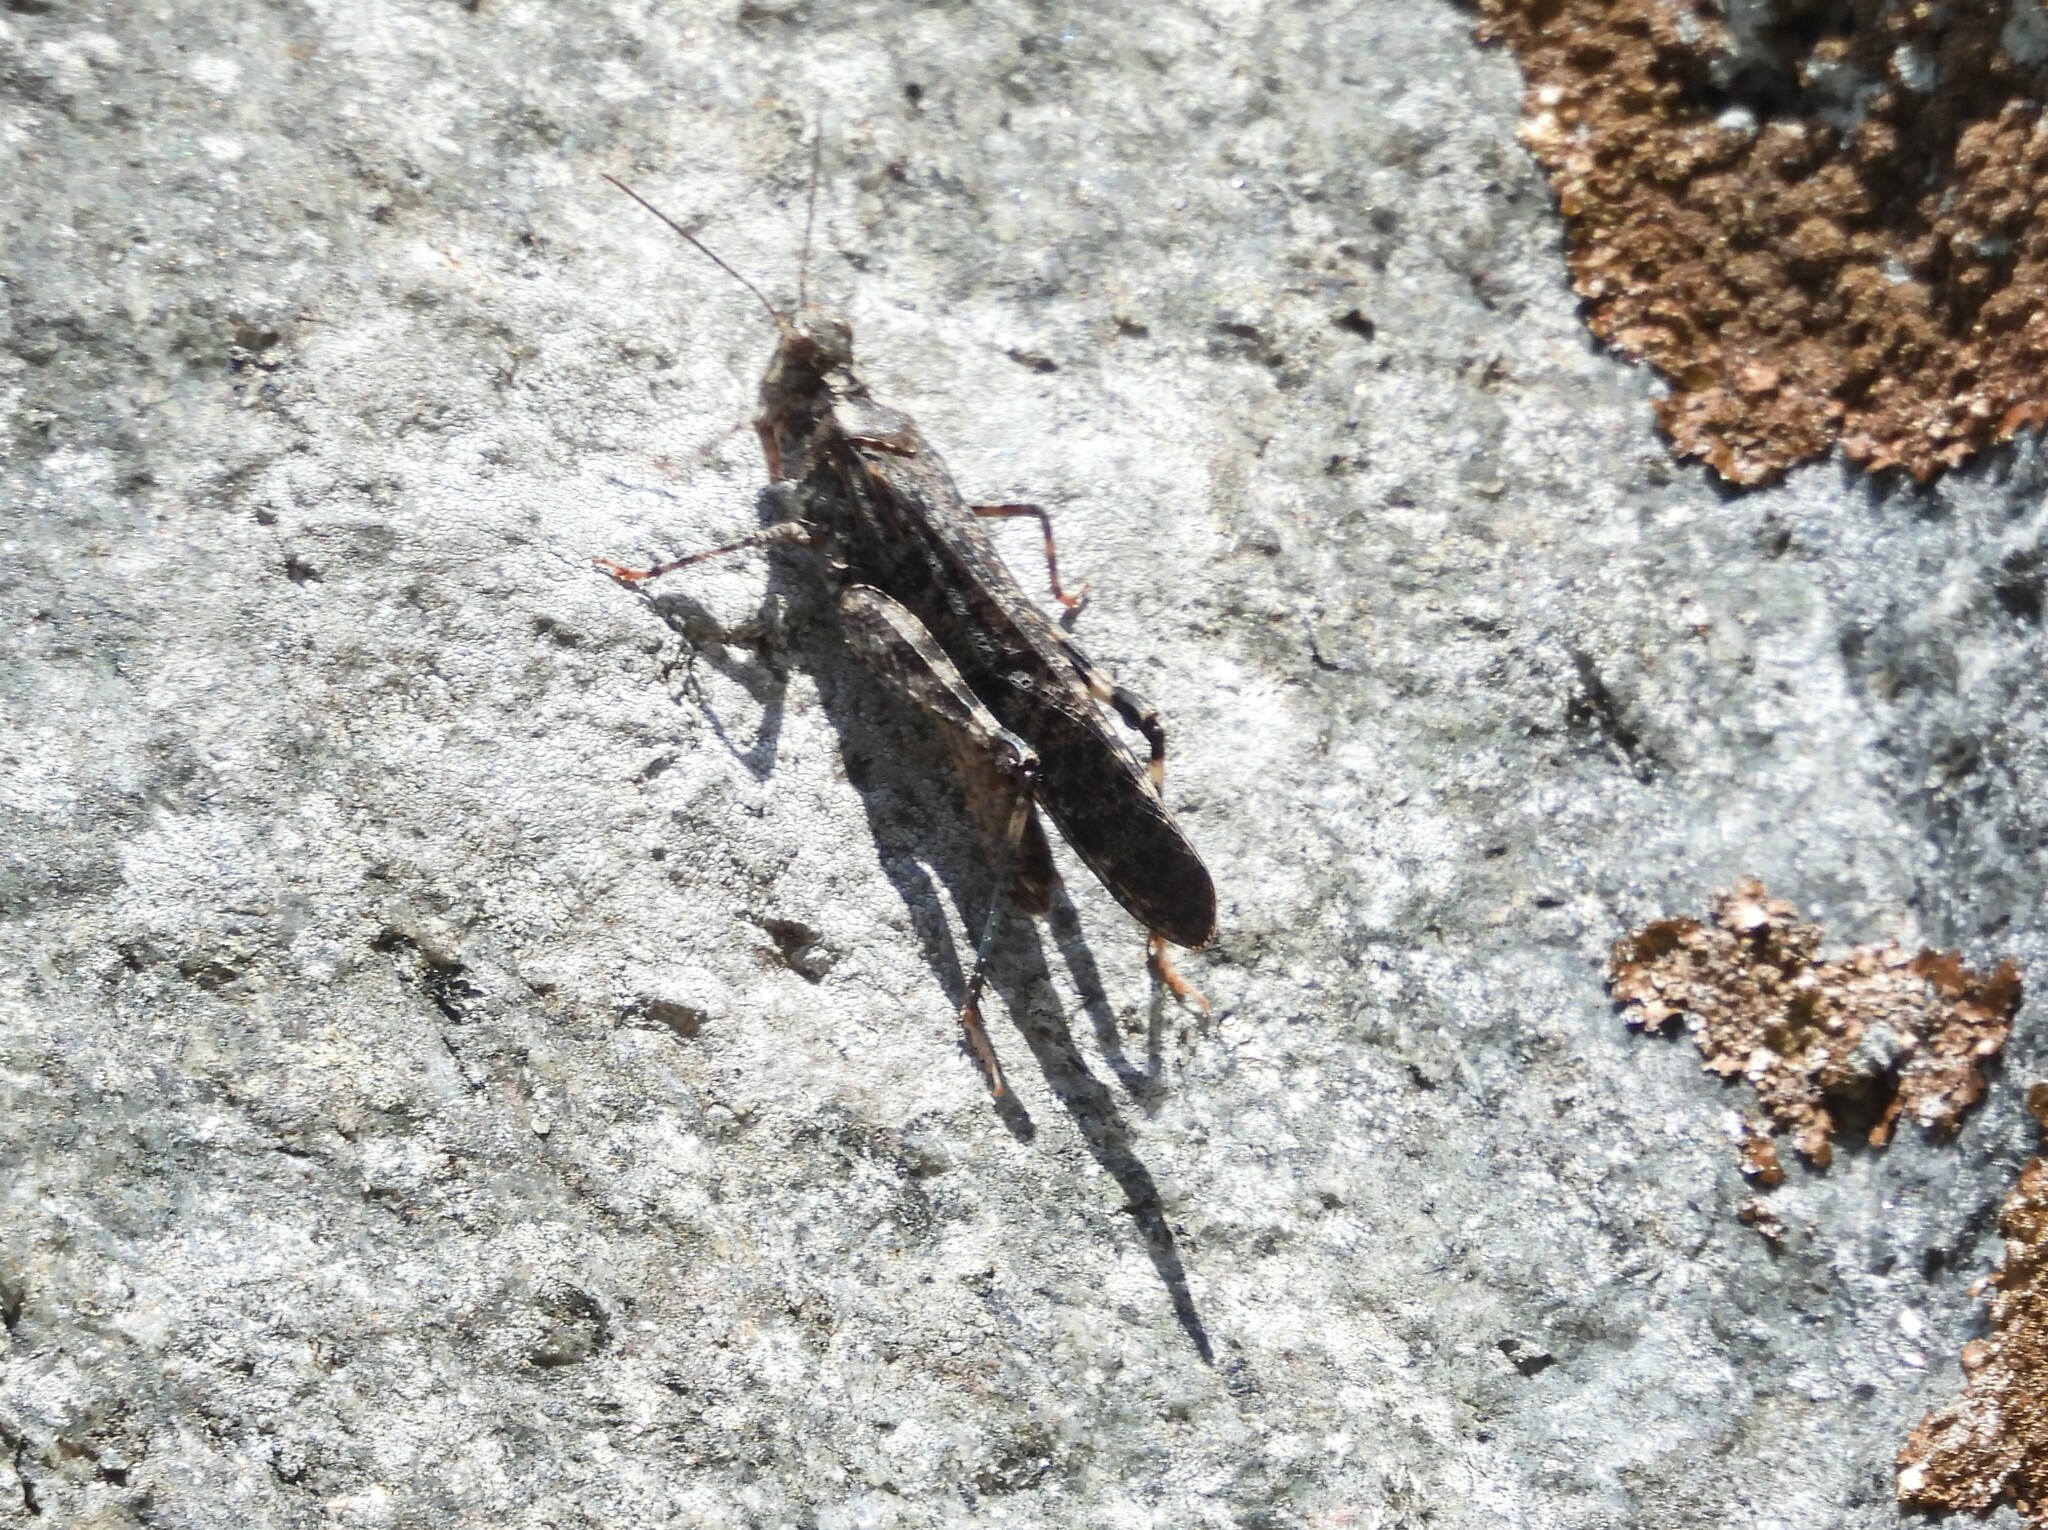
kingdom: Animalia
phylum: Arthropoda
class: Insecta
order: Orthoptera
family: Acrididae
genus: Trimerotropis
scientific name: Trimerotropis verruculata
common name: Crackling forest grasshopper
